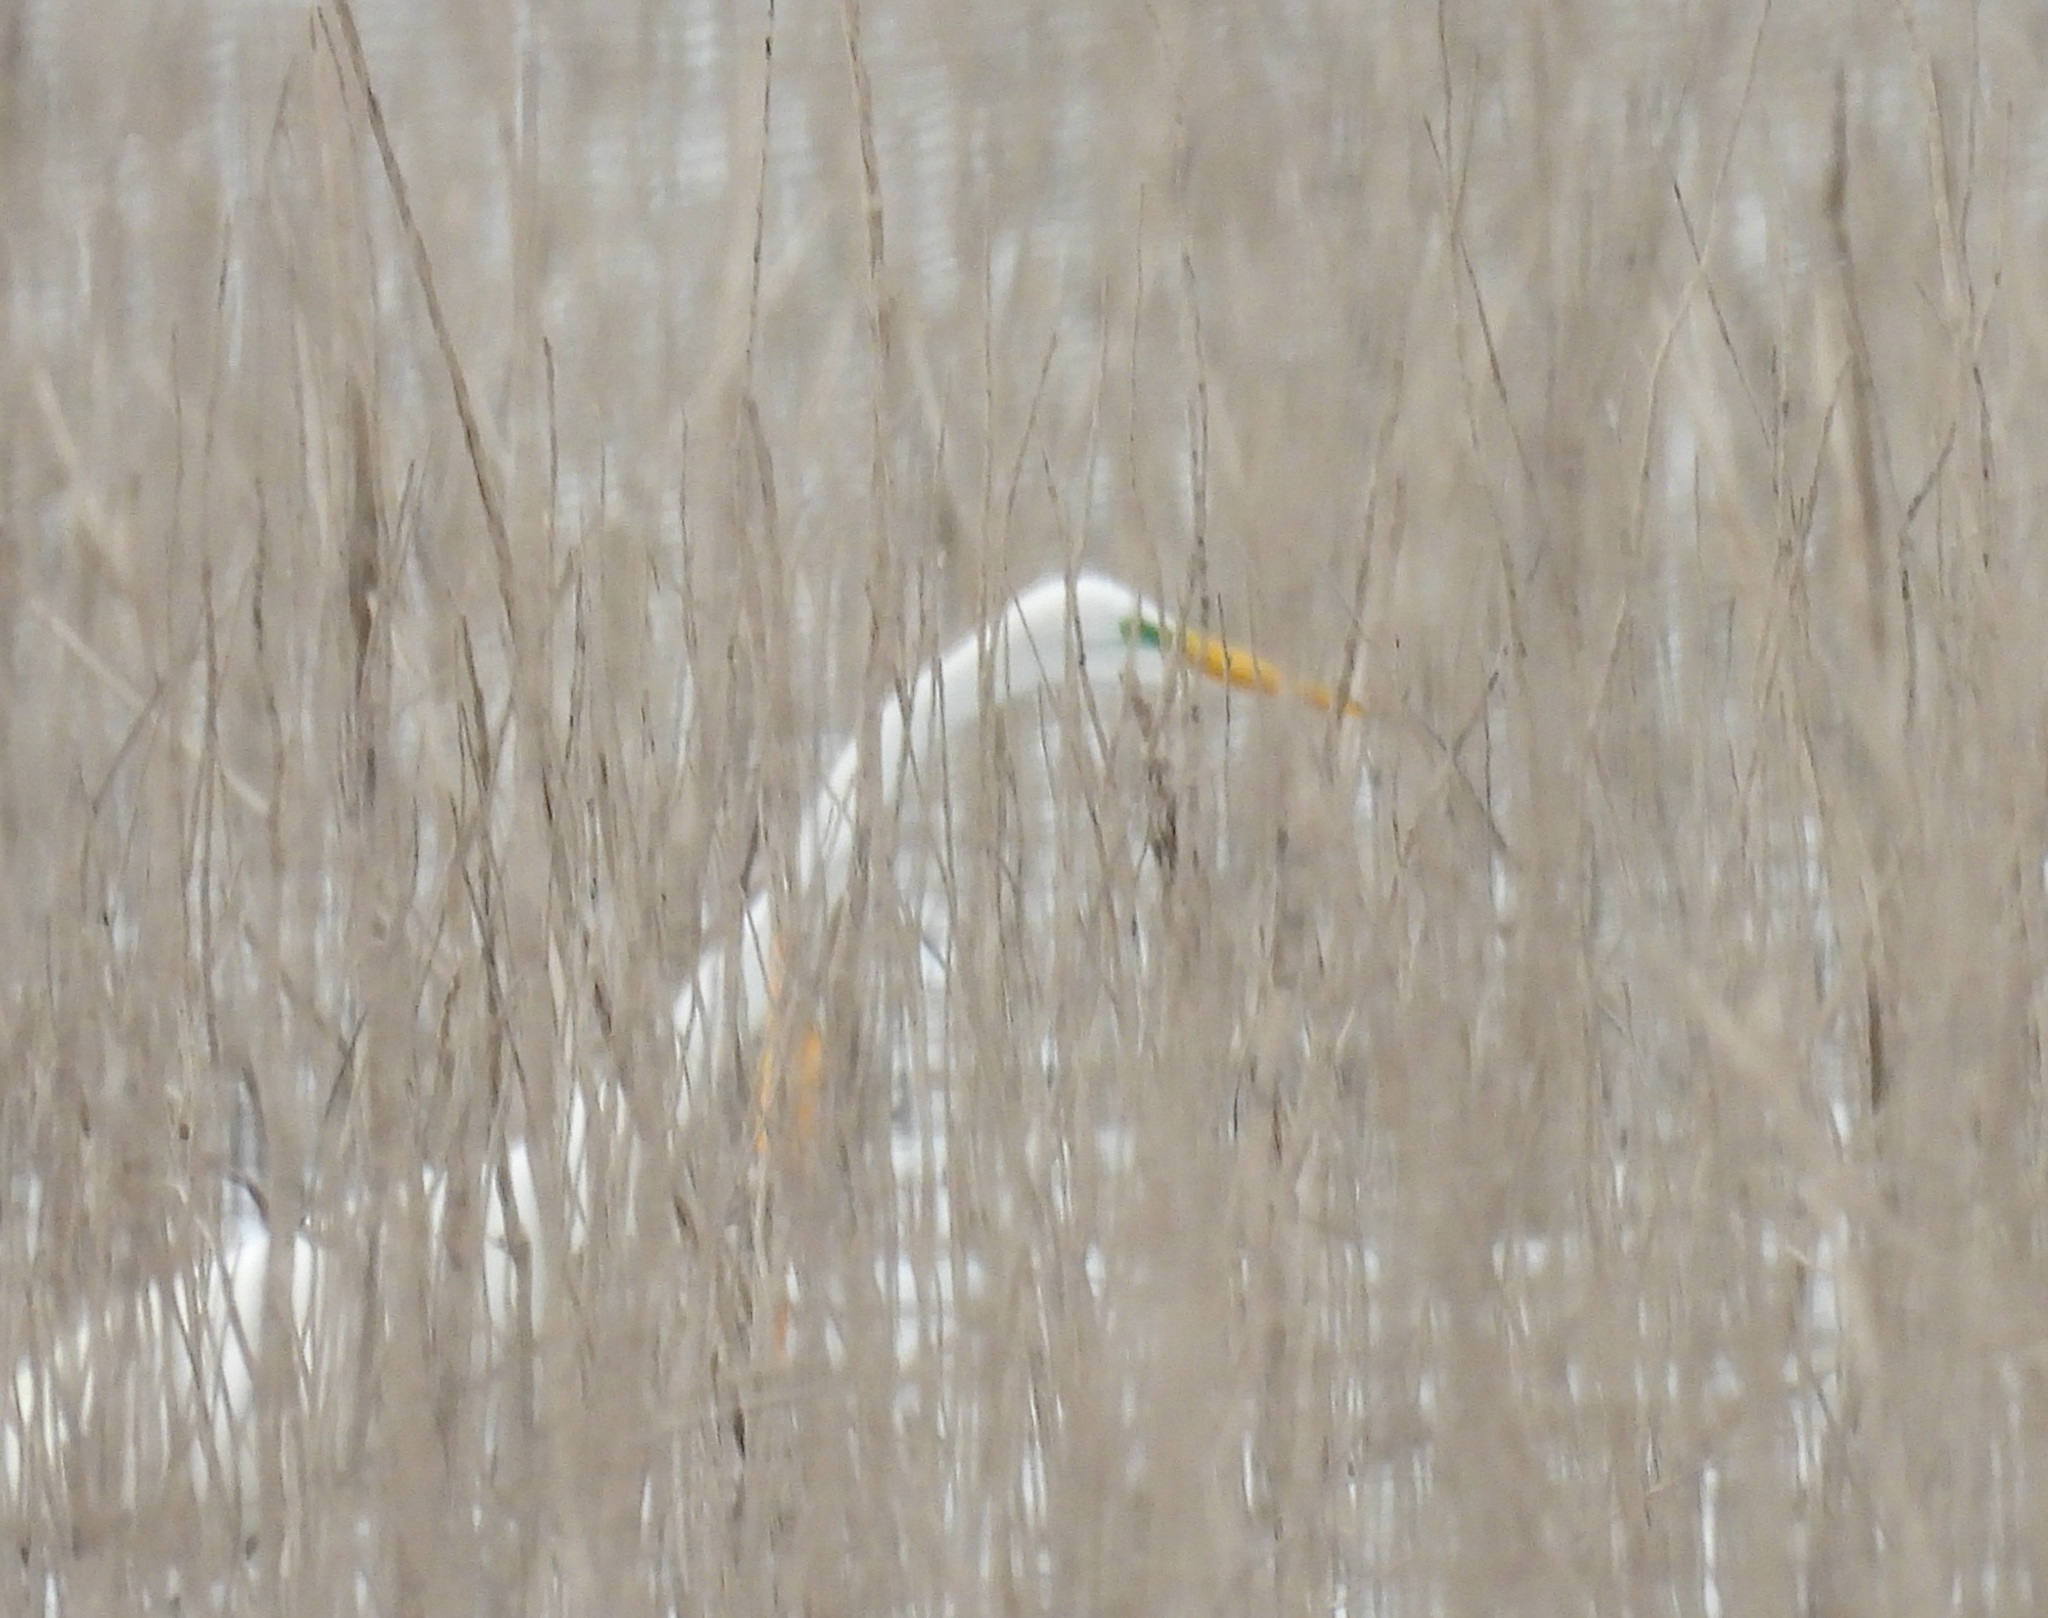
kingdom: Animalia
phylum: Chordata
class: Aves
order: Pelecaniformes
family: Ardeidae
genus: Ardea
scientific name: Ardea alba
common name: Great egret
